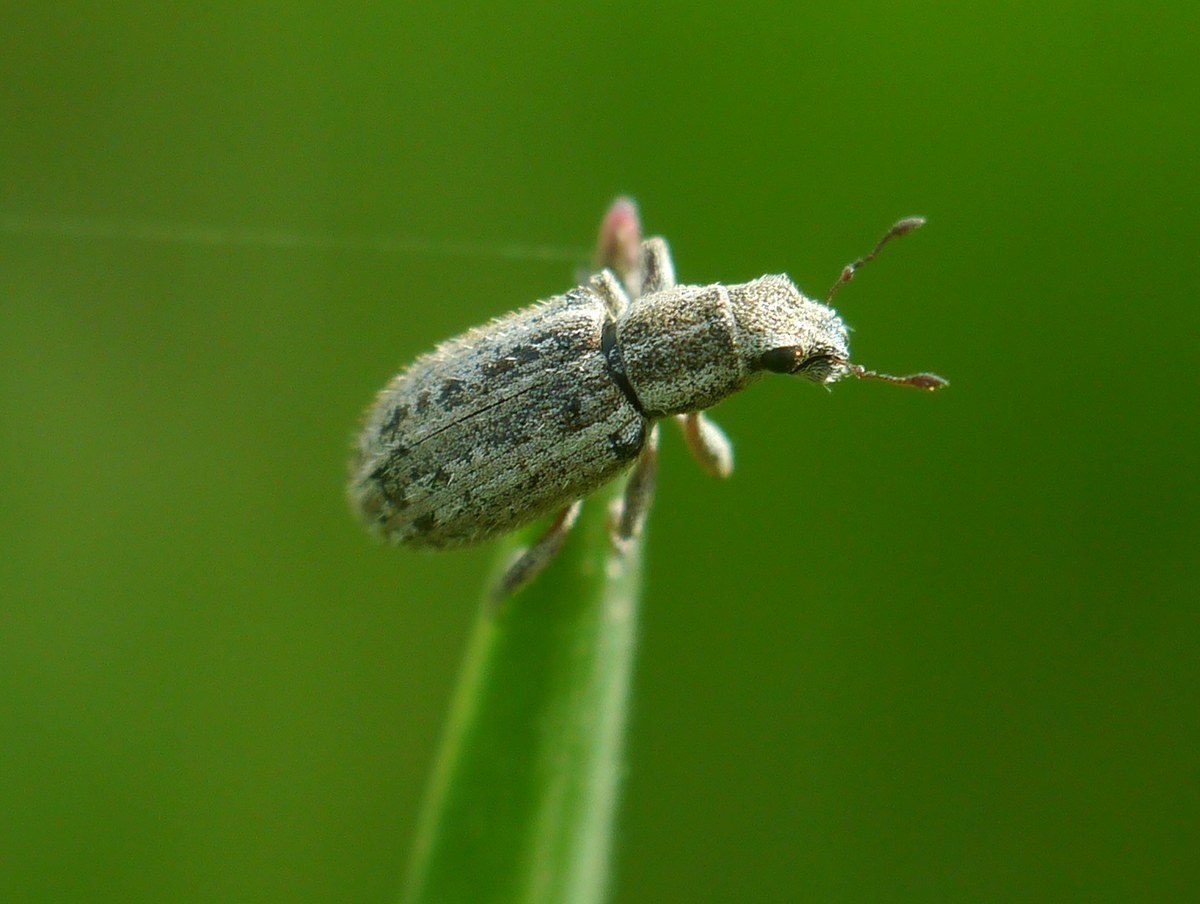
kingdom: Animalia
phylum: Arthropoda
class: Insecta
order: Coleoptera
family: Curculionidae
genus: Sitona
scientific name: Sitona macularius
